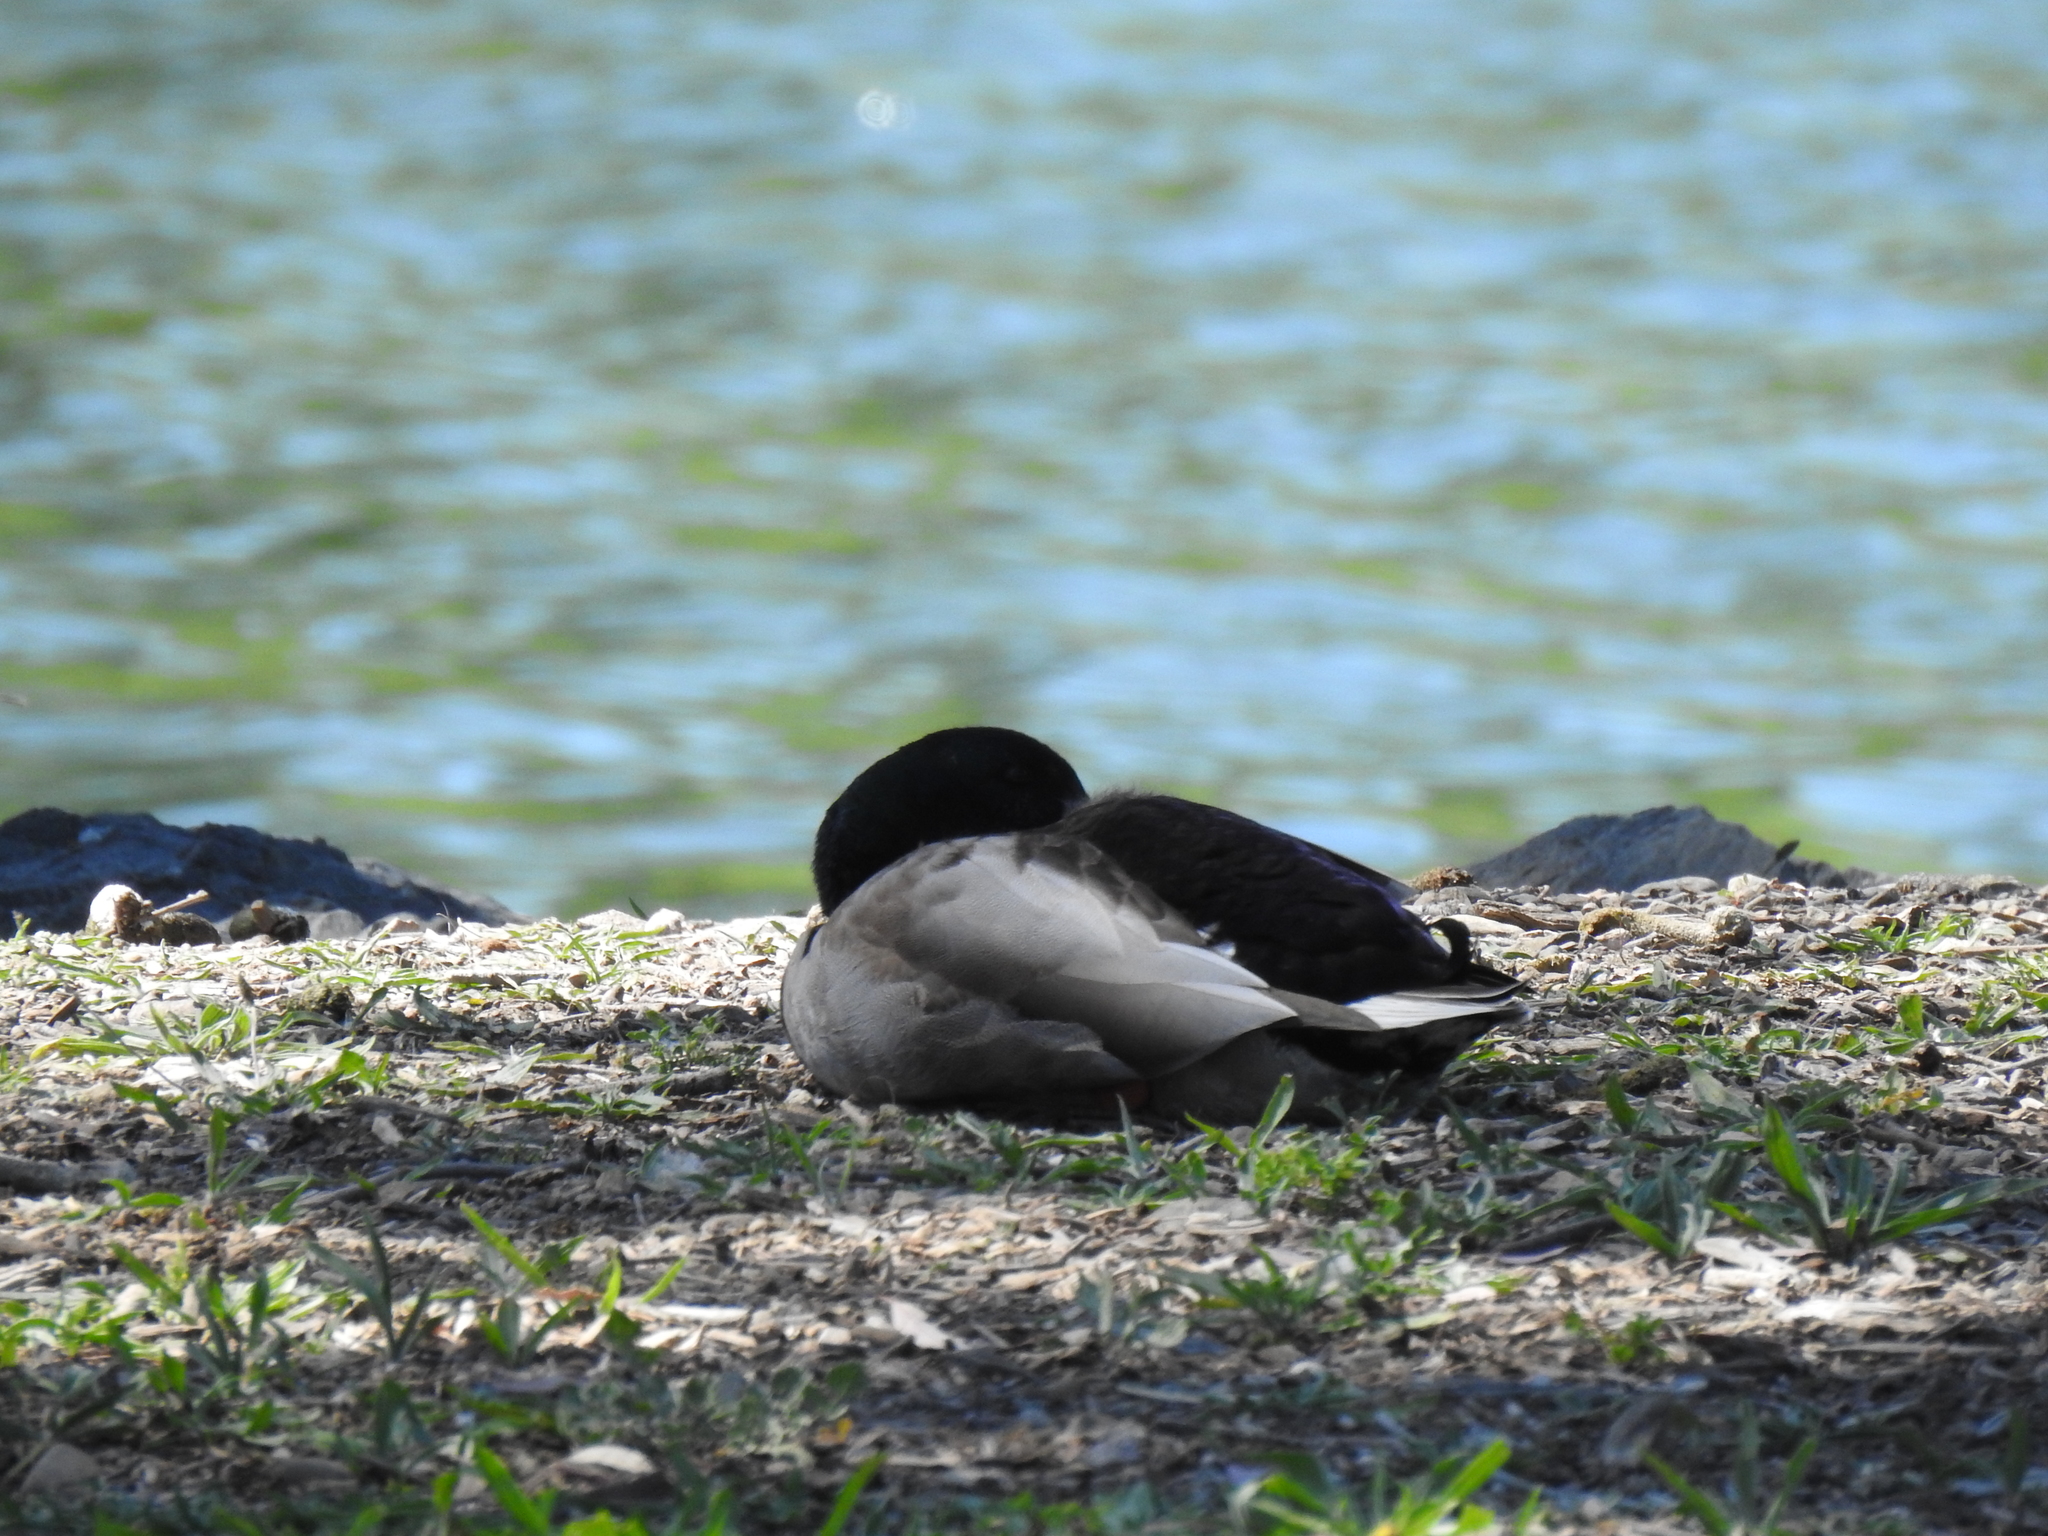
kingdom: Animalia
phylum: Chordata
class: Aves
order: Anseriformes
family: Anatidae
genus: Anas
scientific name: Anas platyrhynchos
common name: Mallard
